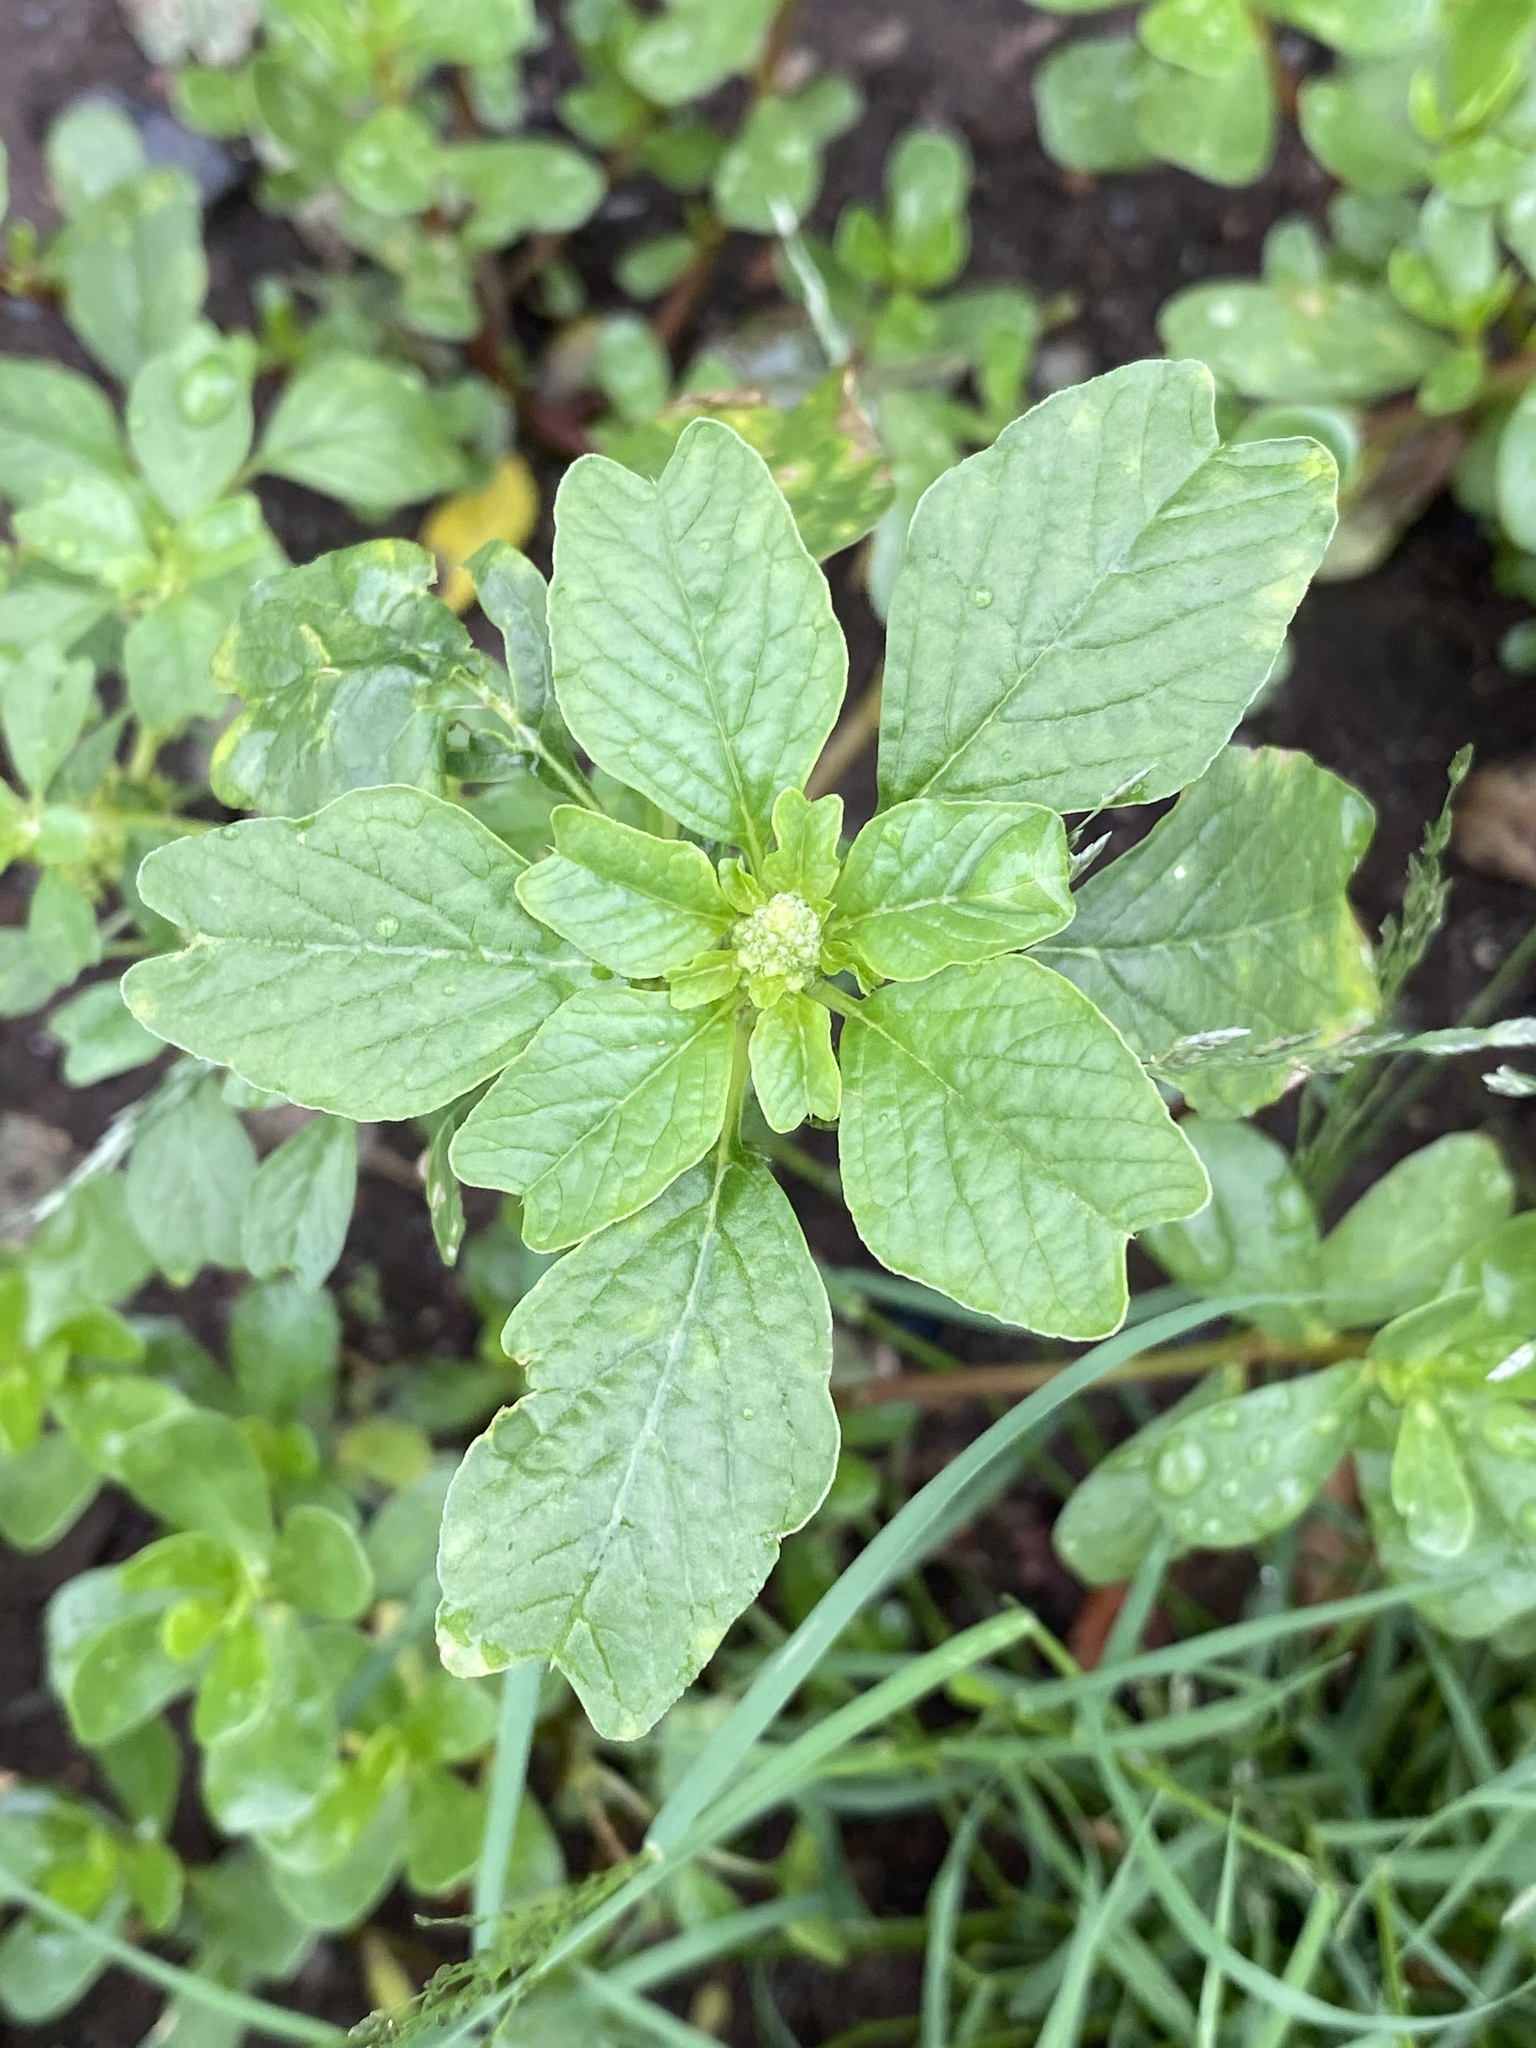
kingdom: Plantae
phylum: Tracheophyta
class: Magnoliopsida
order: Caryophyllales
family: Amaranthaceae
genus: Amaranthus
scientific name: Amaranthus blitum
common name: Purple amaranth
